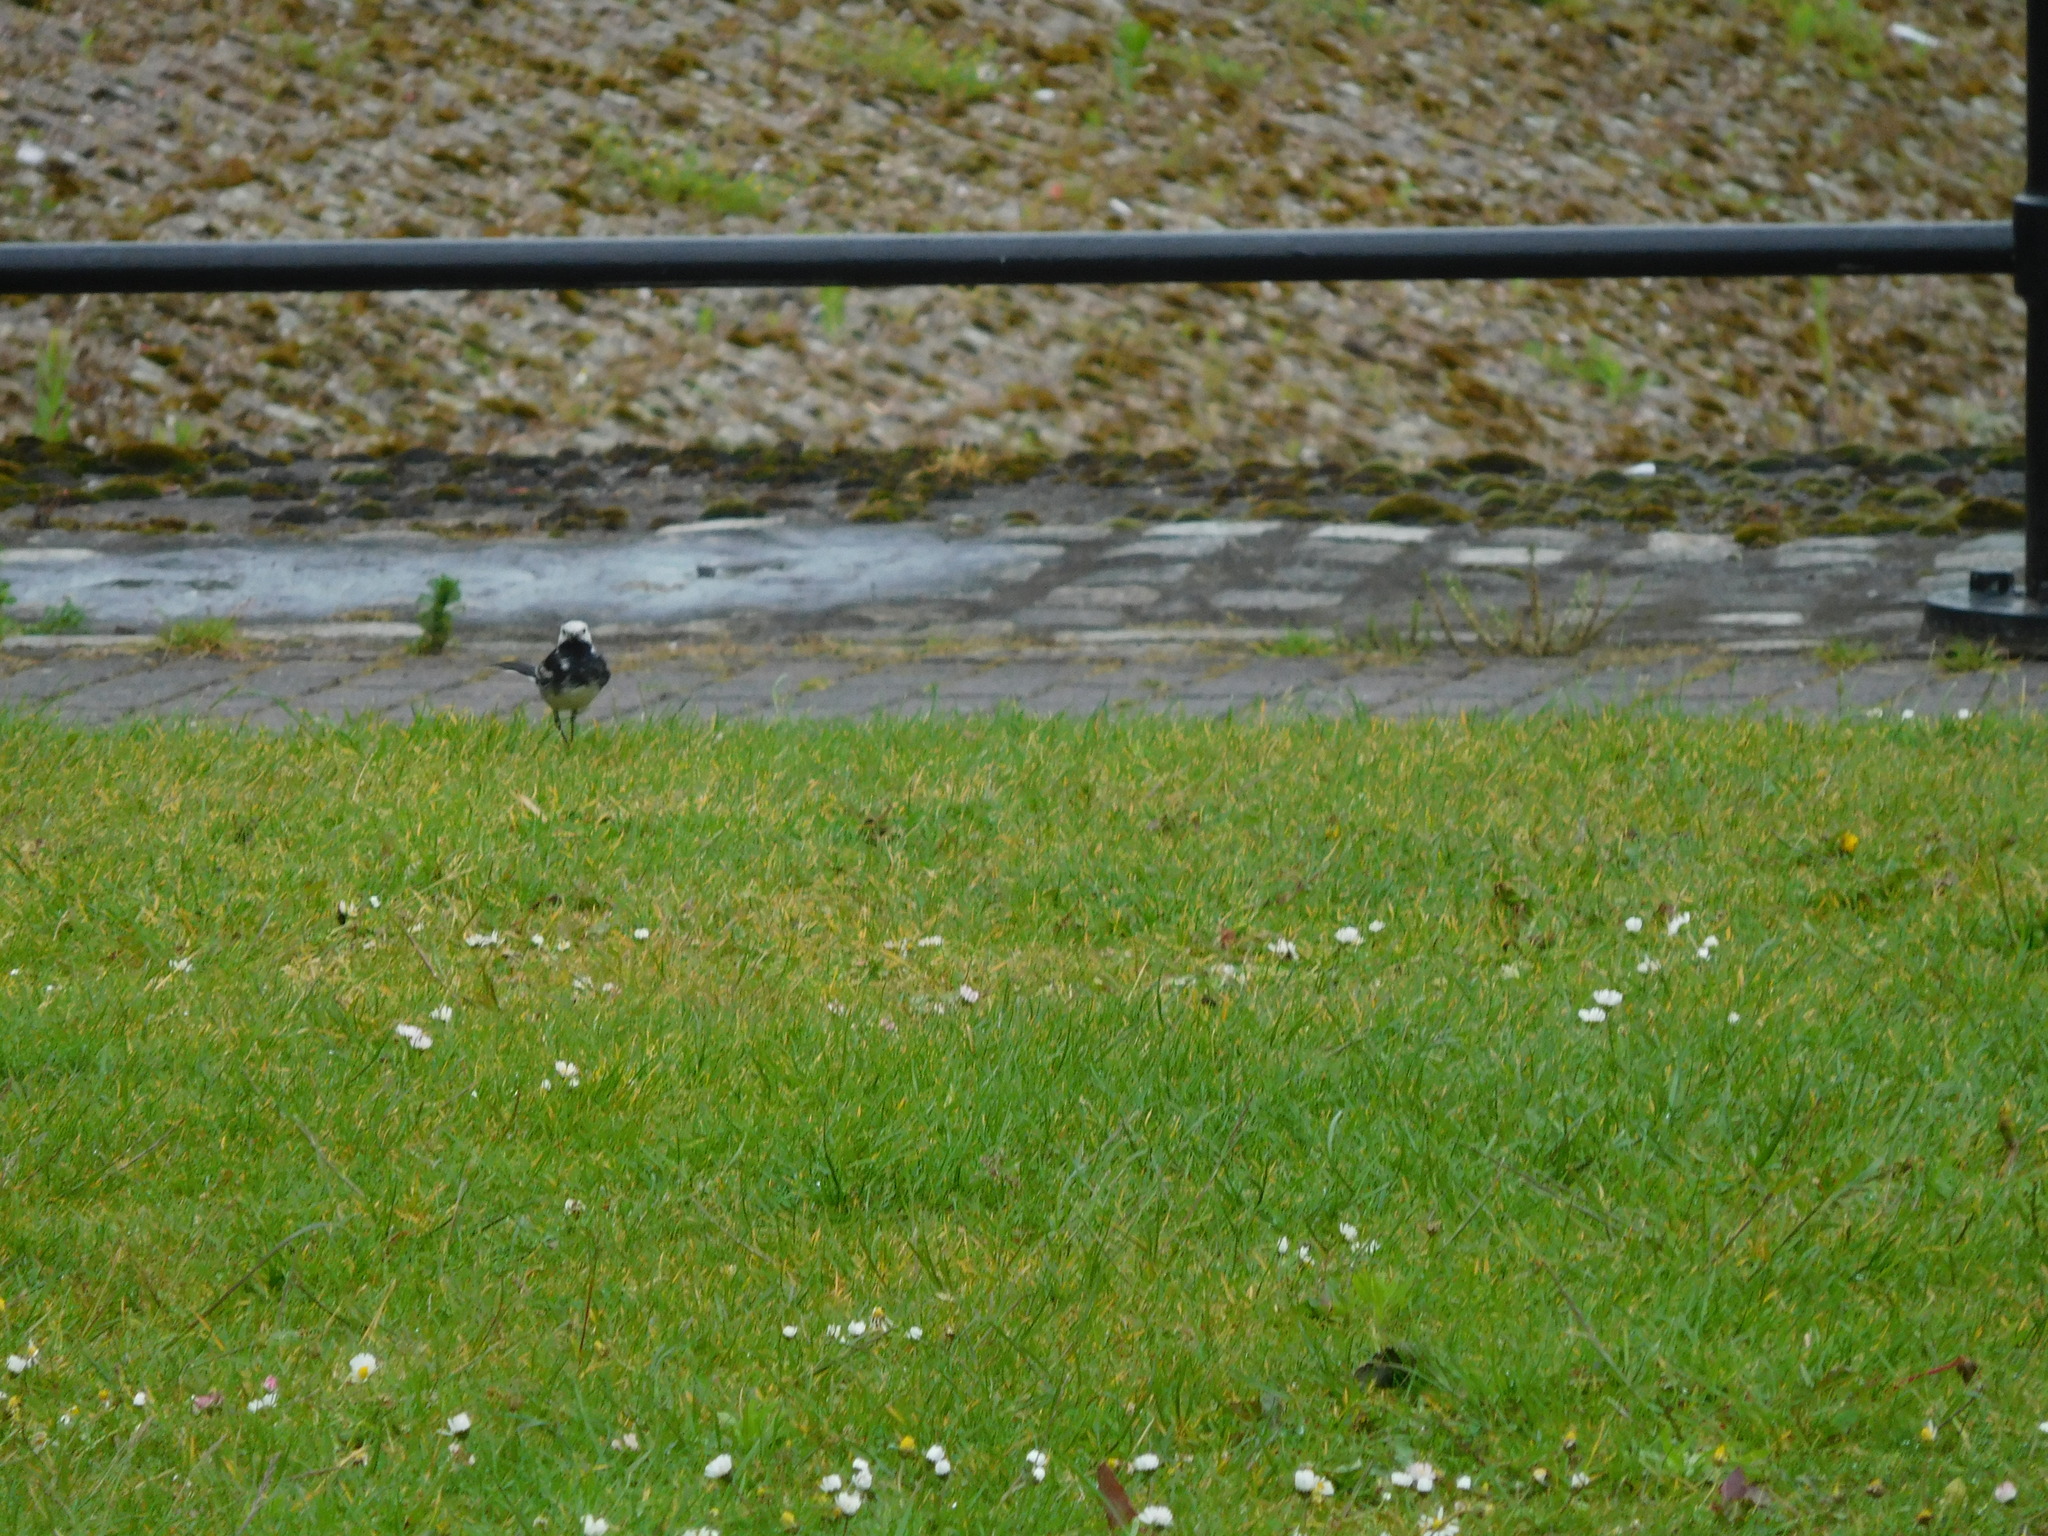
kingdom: Animalia
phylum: Chordata
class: Aves
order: Passeriformes
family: Motacillidae
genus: Motacilla
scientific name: Motacilla alba
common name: White wagtail
